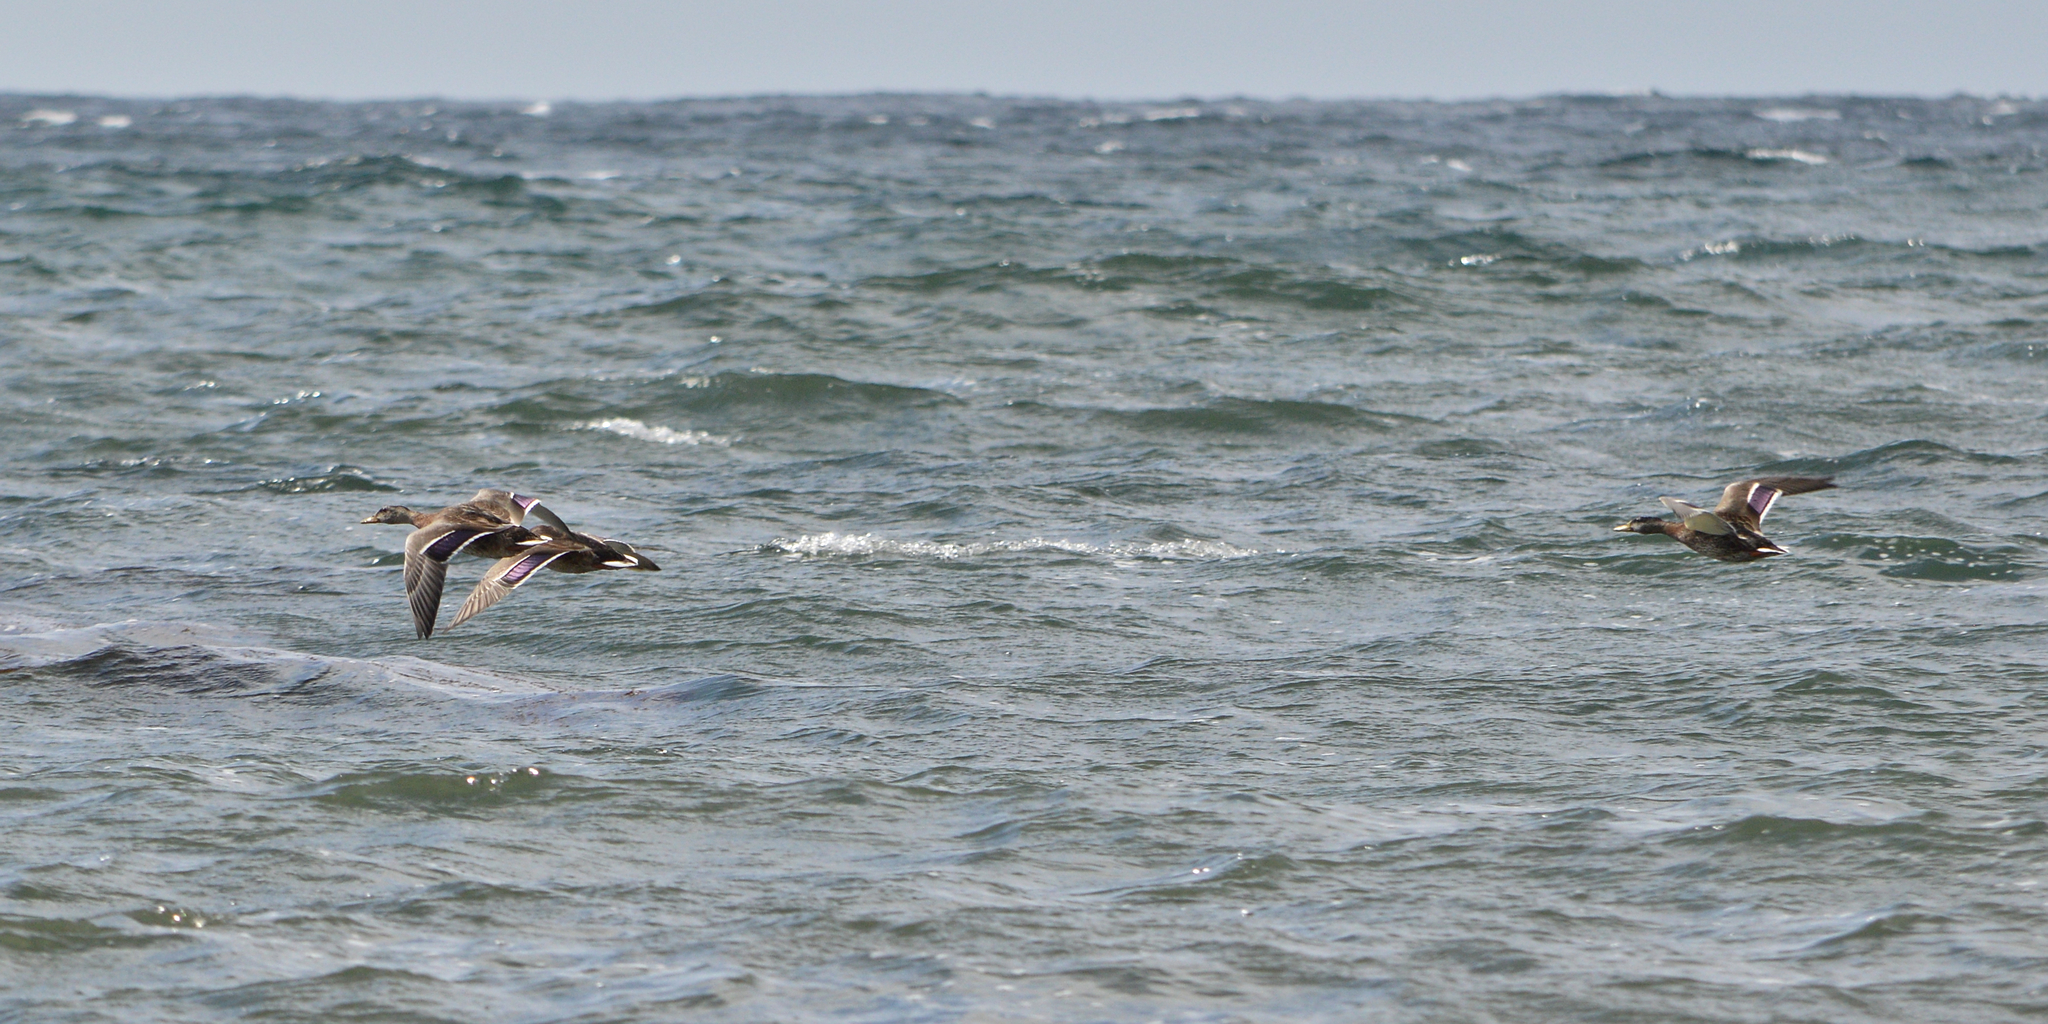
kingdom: Animalia
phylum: Chordata
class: Aves
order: Anseriformes
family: Anatidae
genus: Anas
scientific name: Anas platyrhynchos
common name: Mallard
